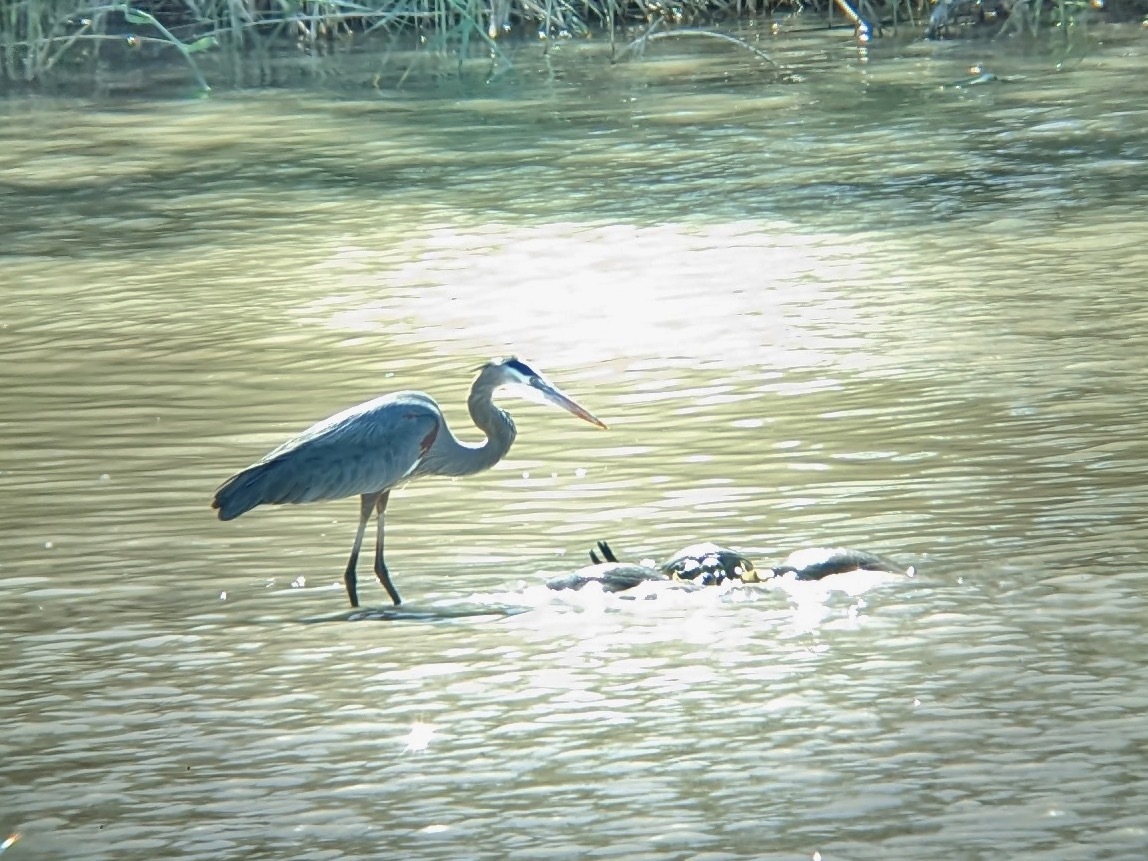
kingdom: Animalia
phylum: Chordata
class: Aves
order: Pelecaniformes
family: Ardeidae
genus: Ardea
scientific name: Ardea herodias
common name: Great blue heron
